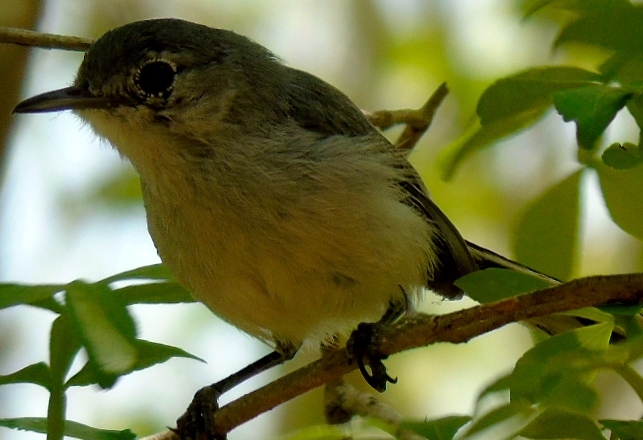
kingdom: Animalia
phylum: Chordata
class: Aves
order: Passeriformes
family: Polioptilidae
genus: Polioptila
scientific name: Polioptila caerulea
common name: Blue-gray gnatcatcher
